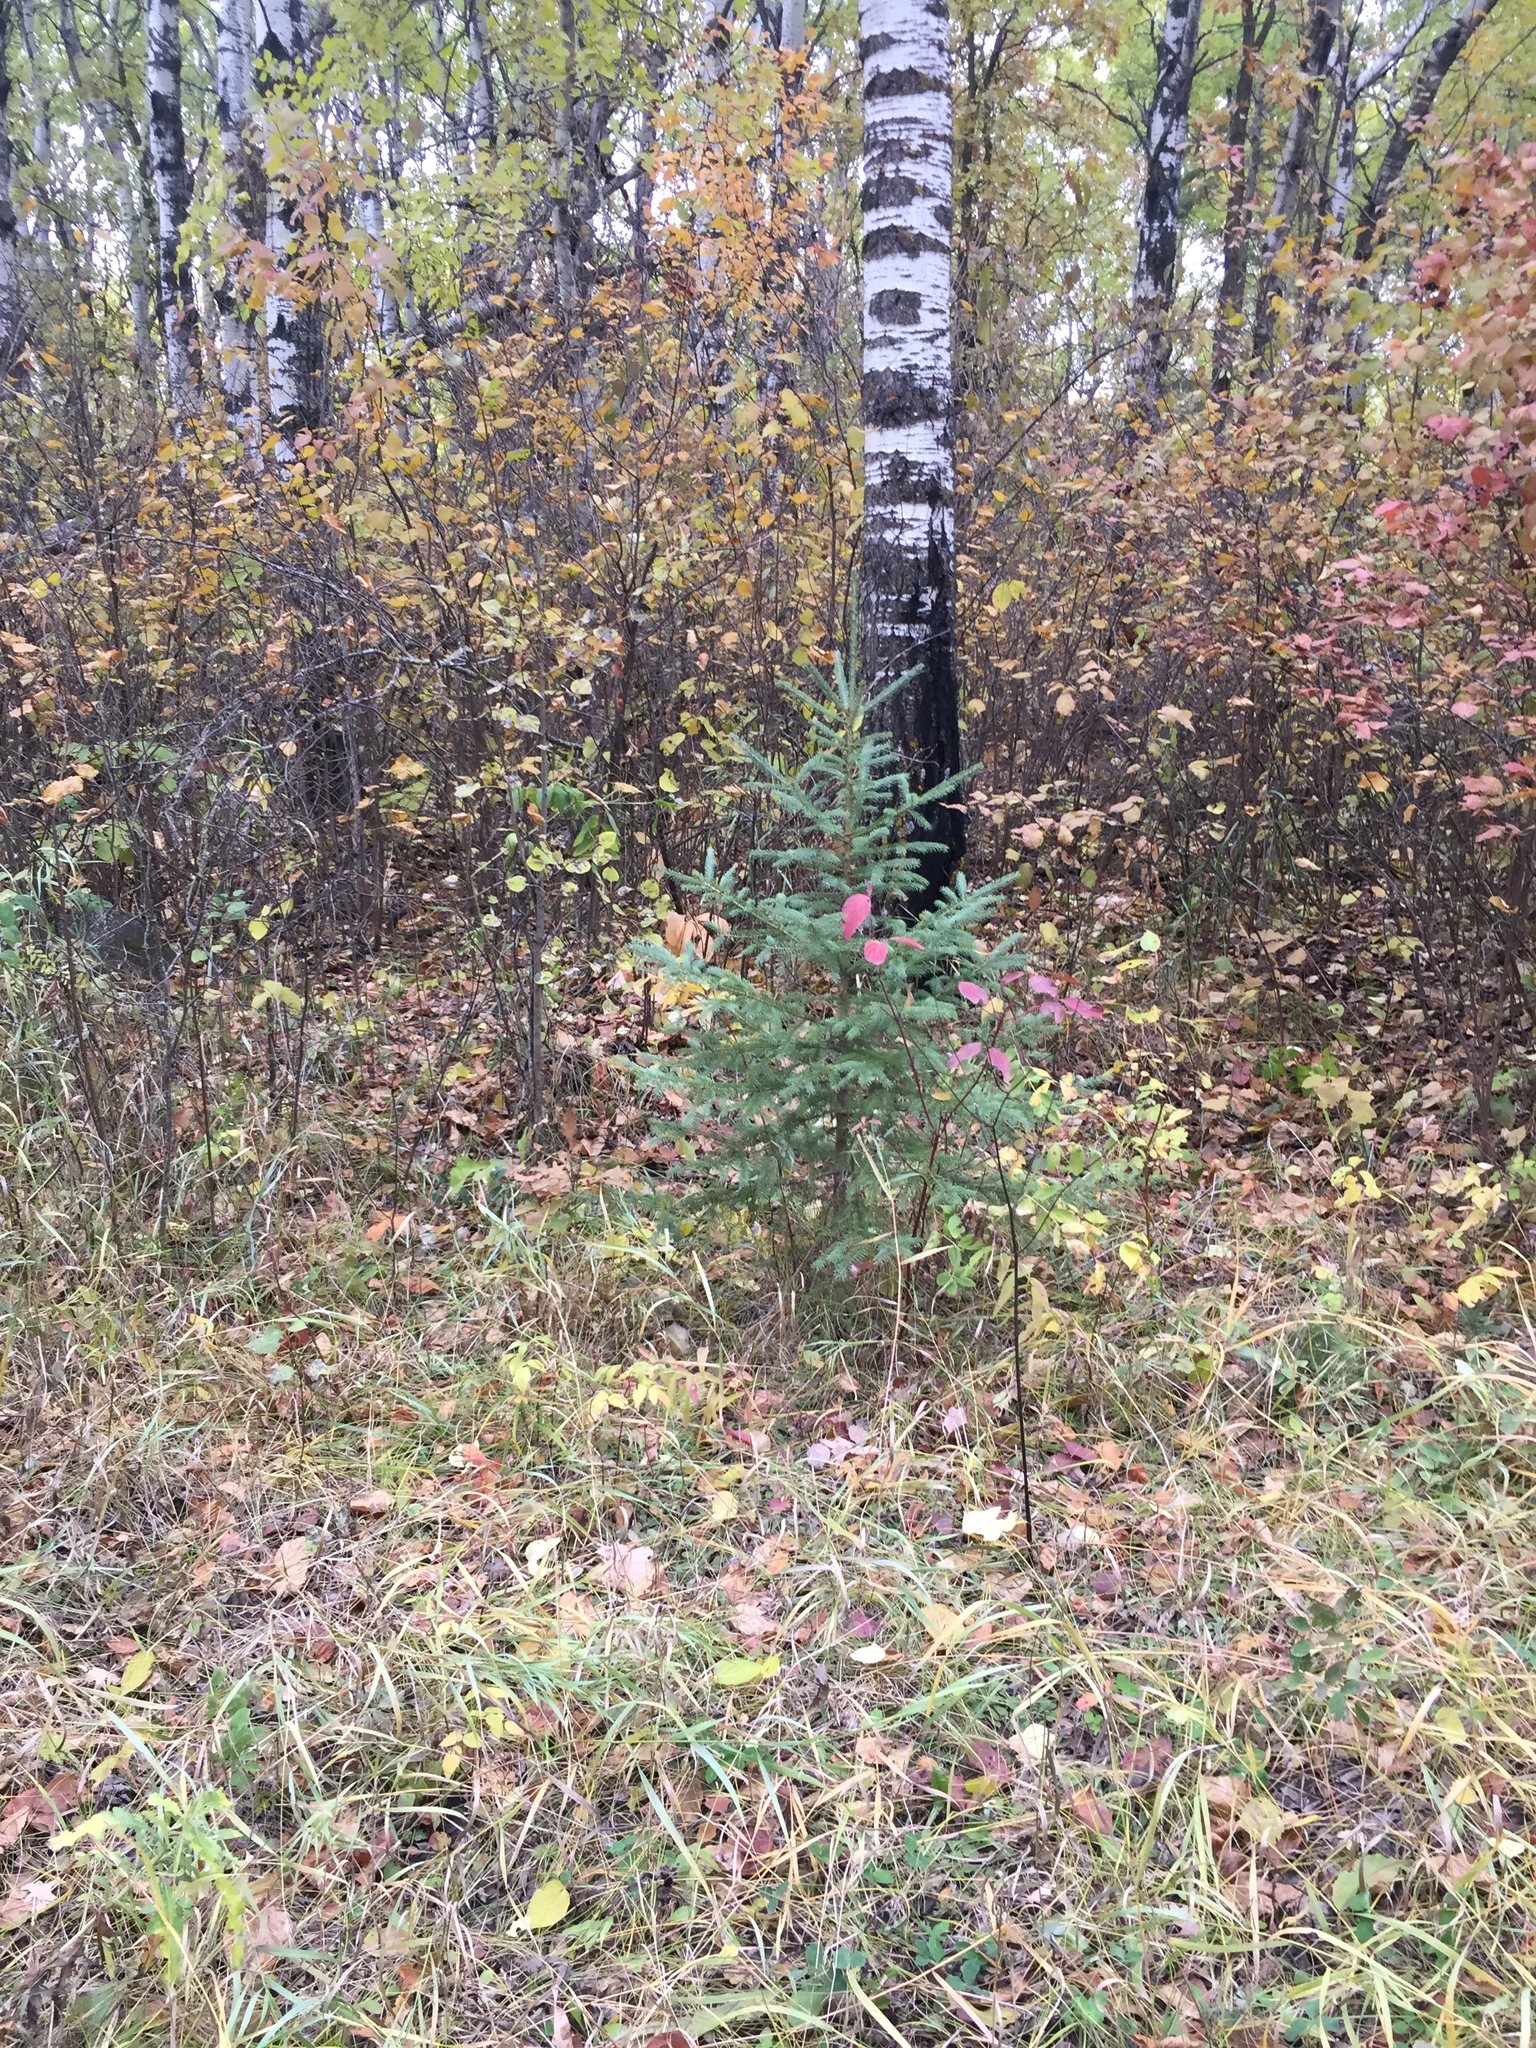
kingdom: Plantae
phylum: Tracheophyta
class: Pinopsida
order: Pinales
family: Pinaceae
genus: Picea
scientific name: Picea glauca
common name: White spruce
